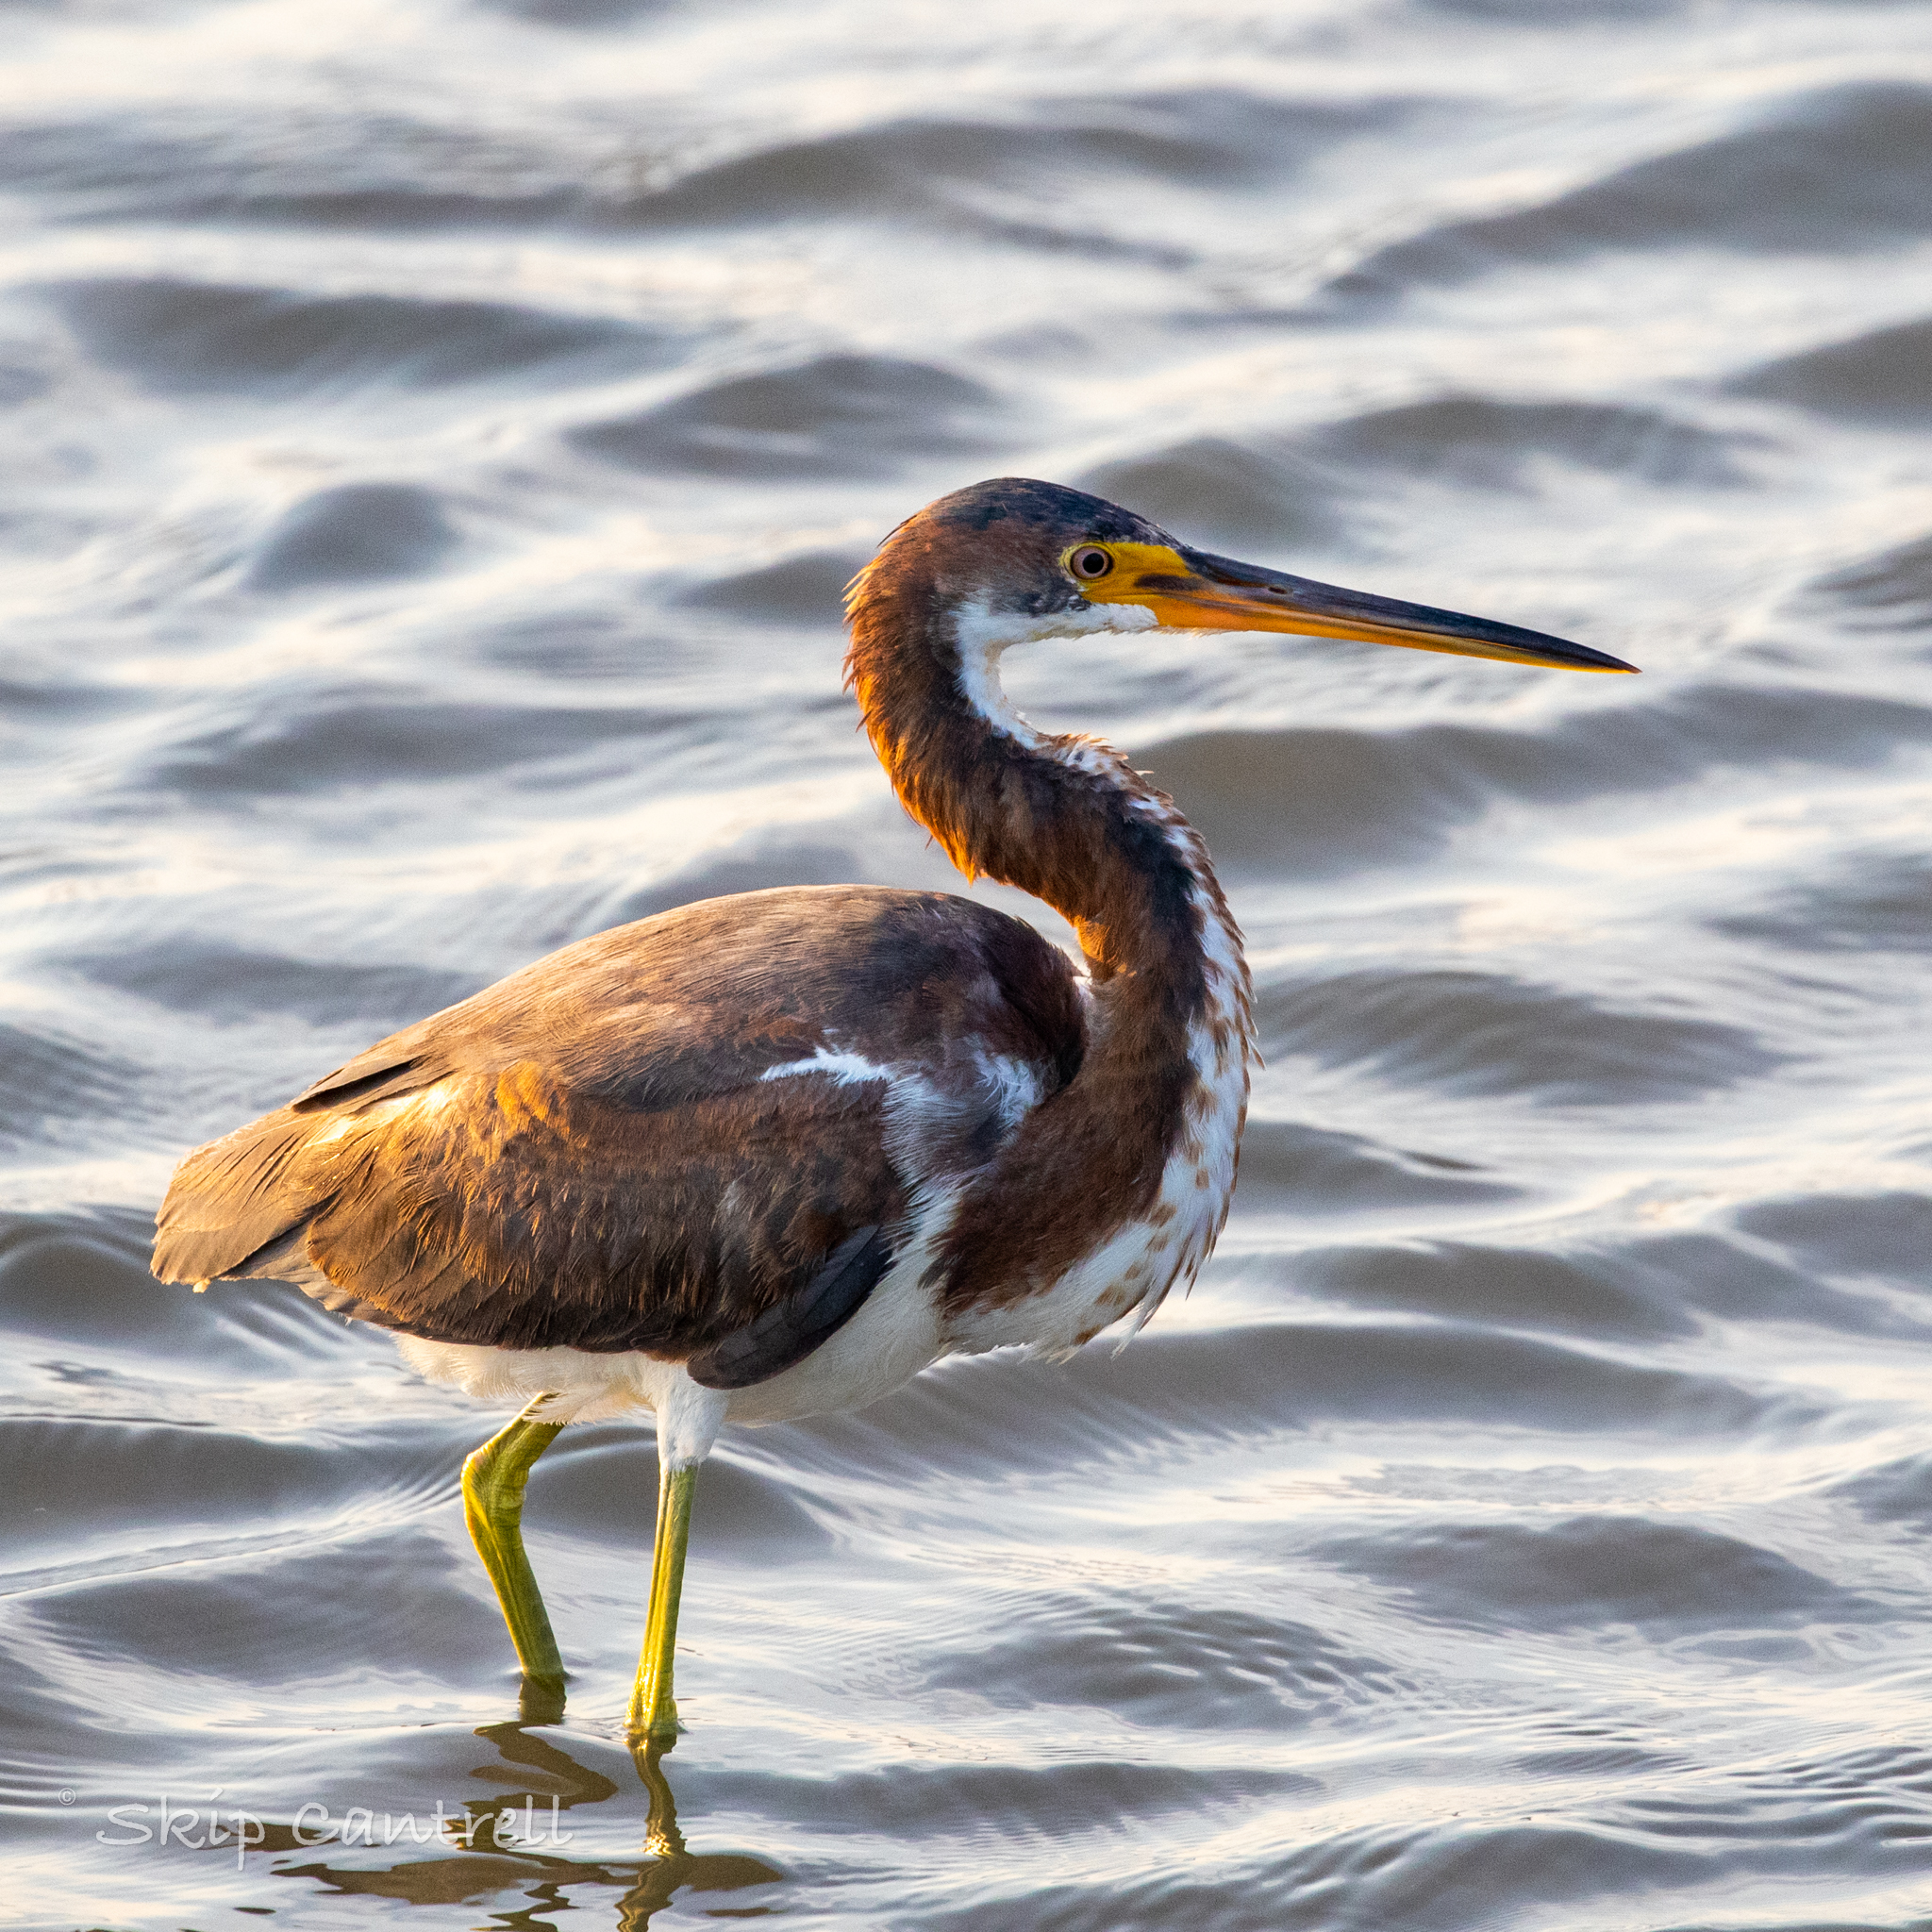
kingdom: Animalia
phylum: Chordata
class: Aves
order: Pelecaniformes
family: Ardeidae
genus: Egretta
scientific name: Egretta tricolor
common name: Tricolored heron
